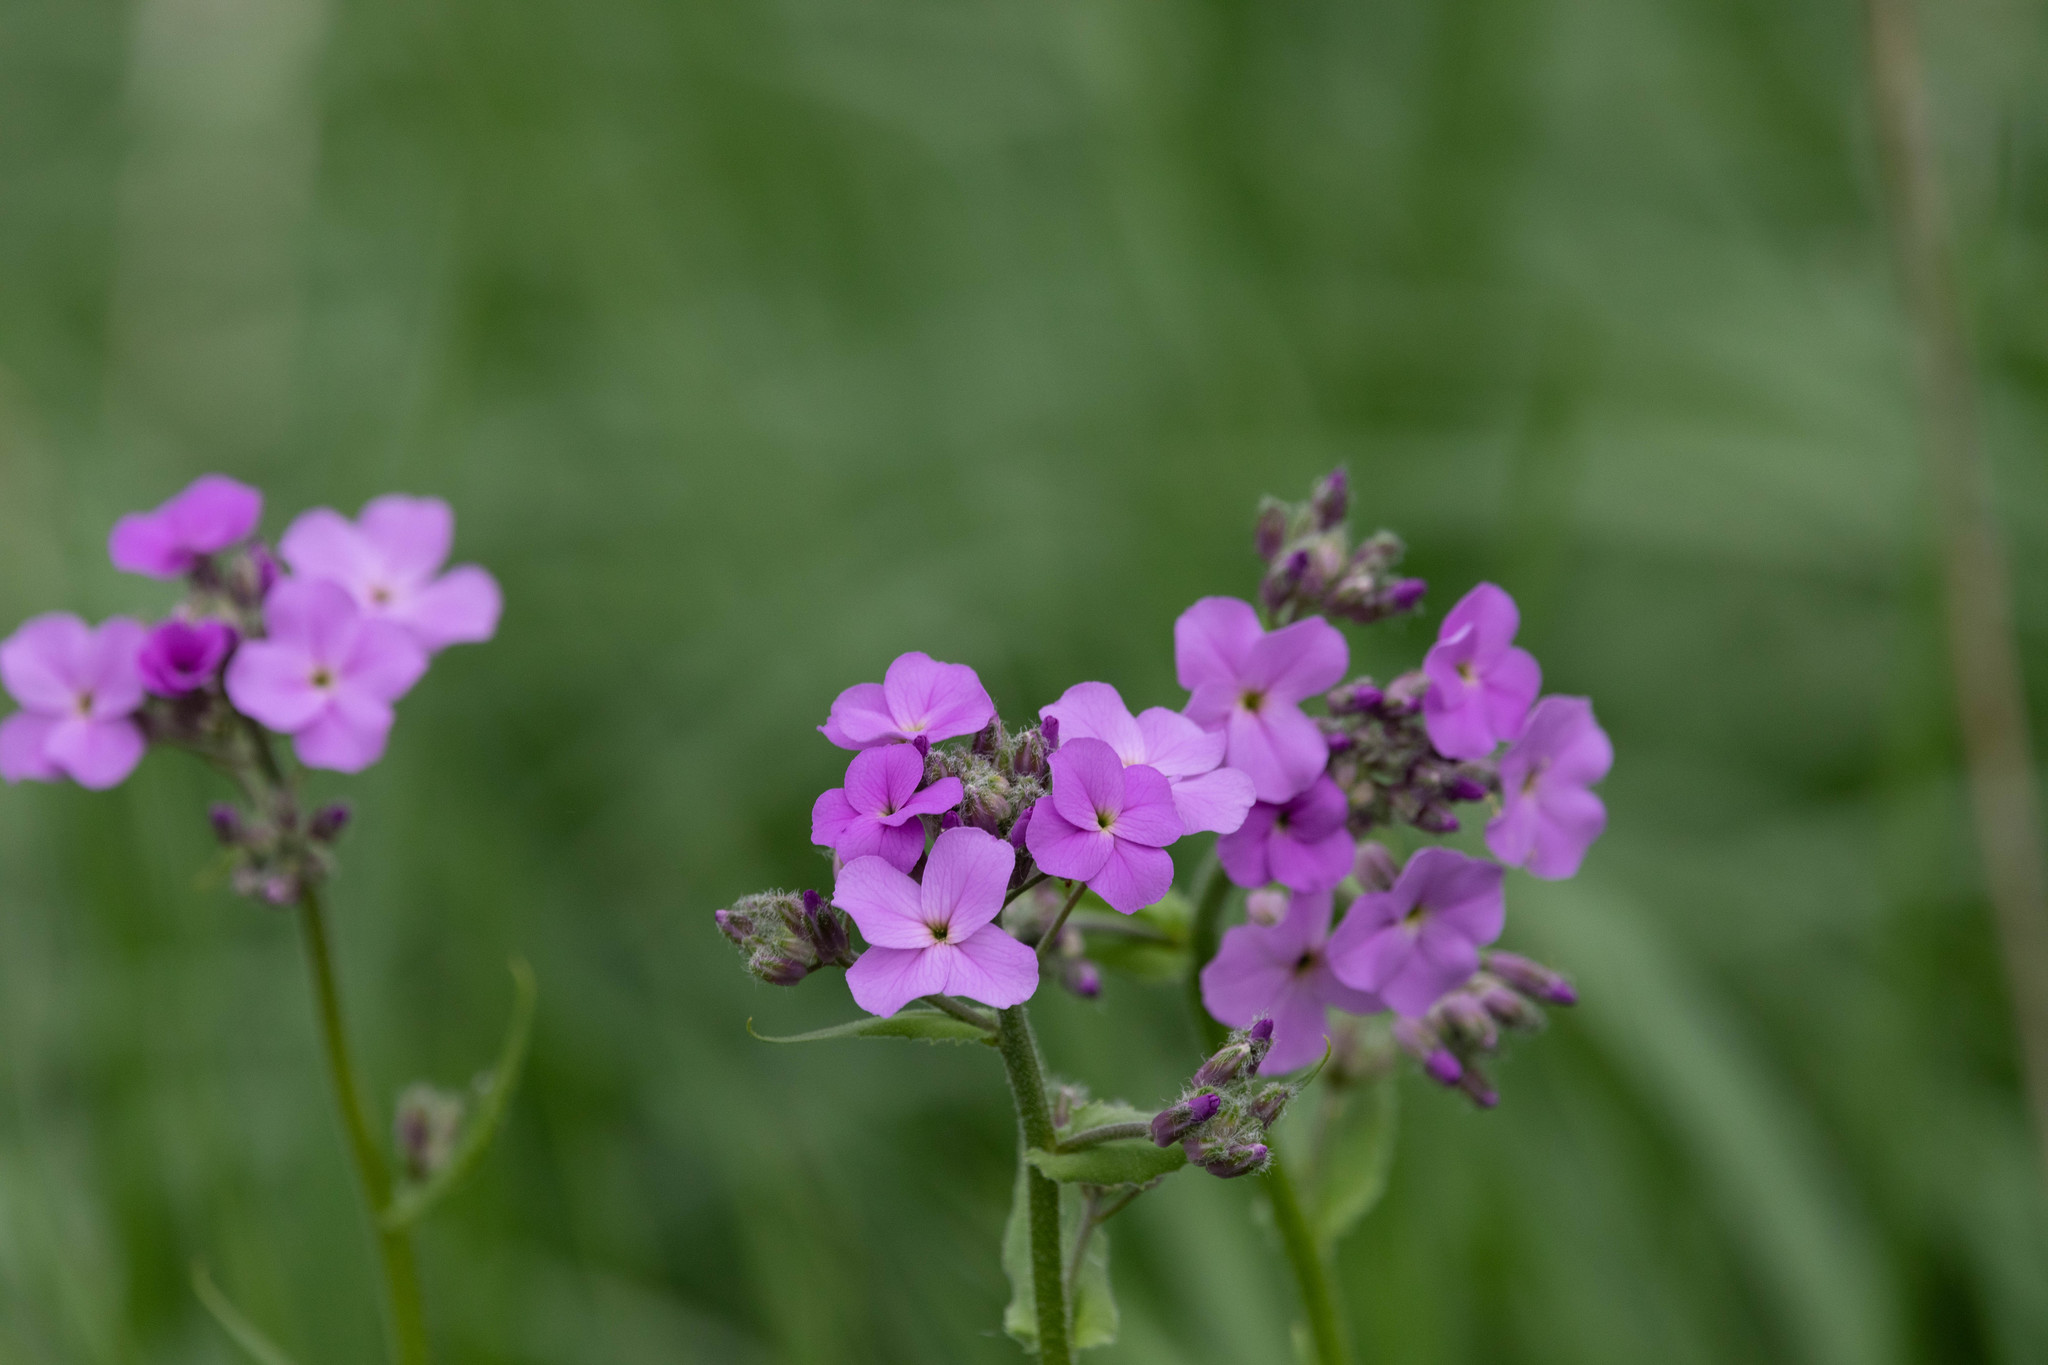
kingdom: Plantae
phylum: Tracheophyta
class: Magnoliopsida
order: Brassicales
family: Brassicaceae
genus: Hesperis
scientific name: Hesperis matronalis
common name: Dame's-violet
